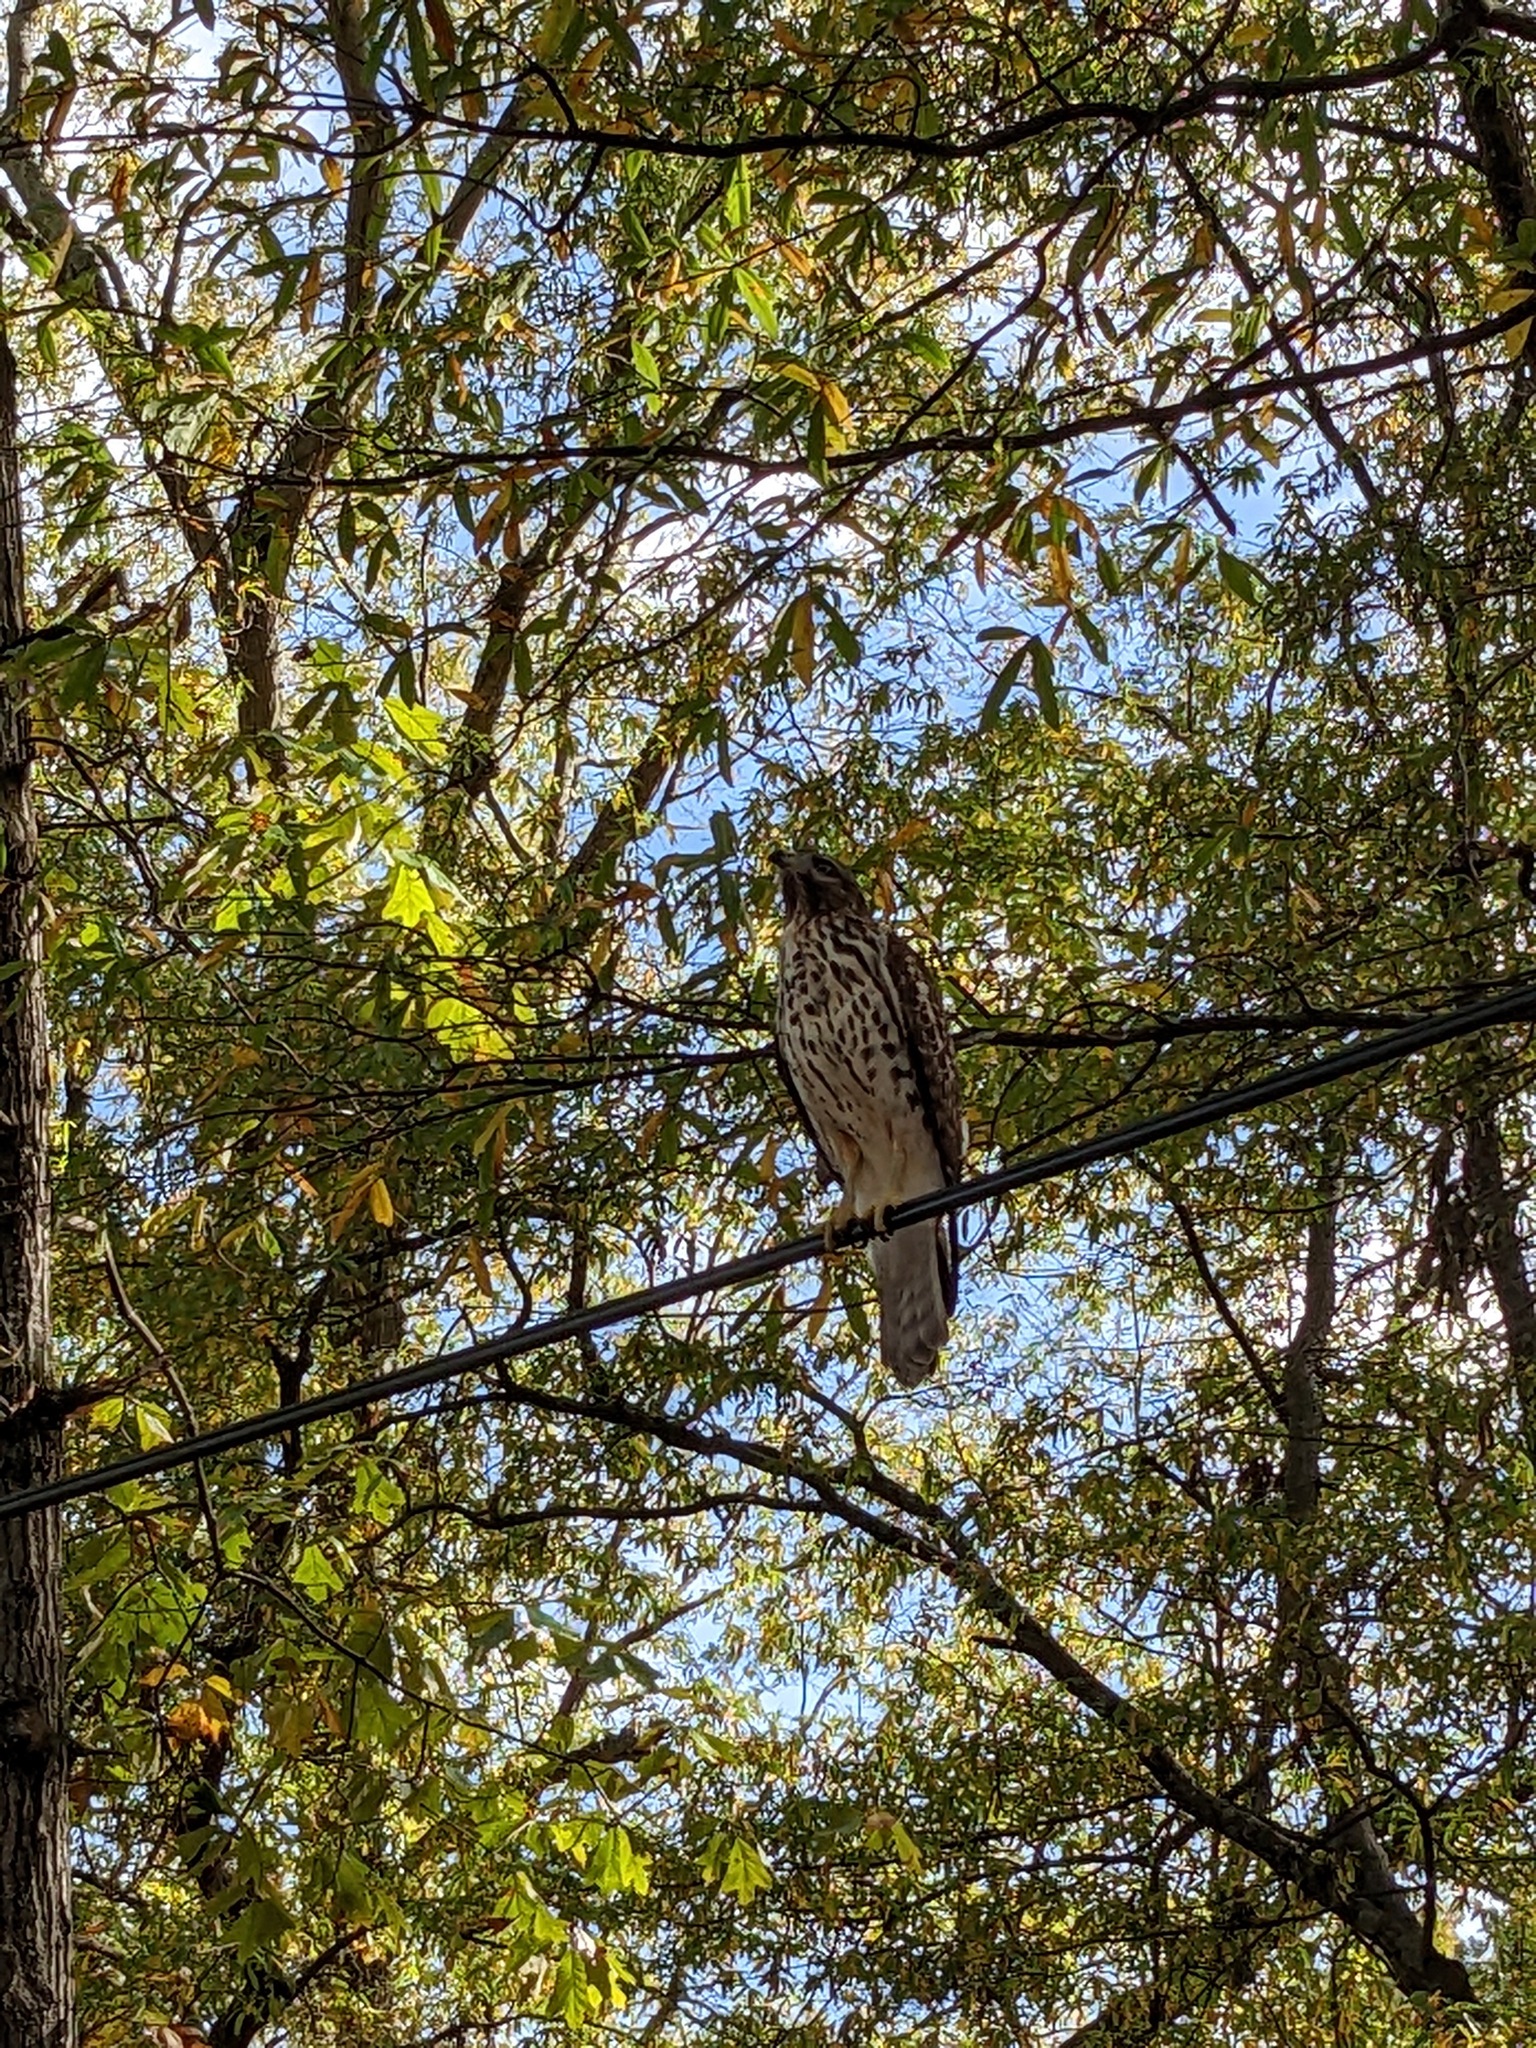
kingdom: Animalia
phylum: Chordata
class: Aves
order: Accipitriformes
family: Accipitridae
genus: Buteo
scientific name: Buteo lineatus
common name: Red-shouldered hawk
